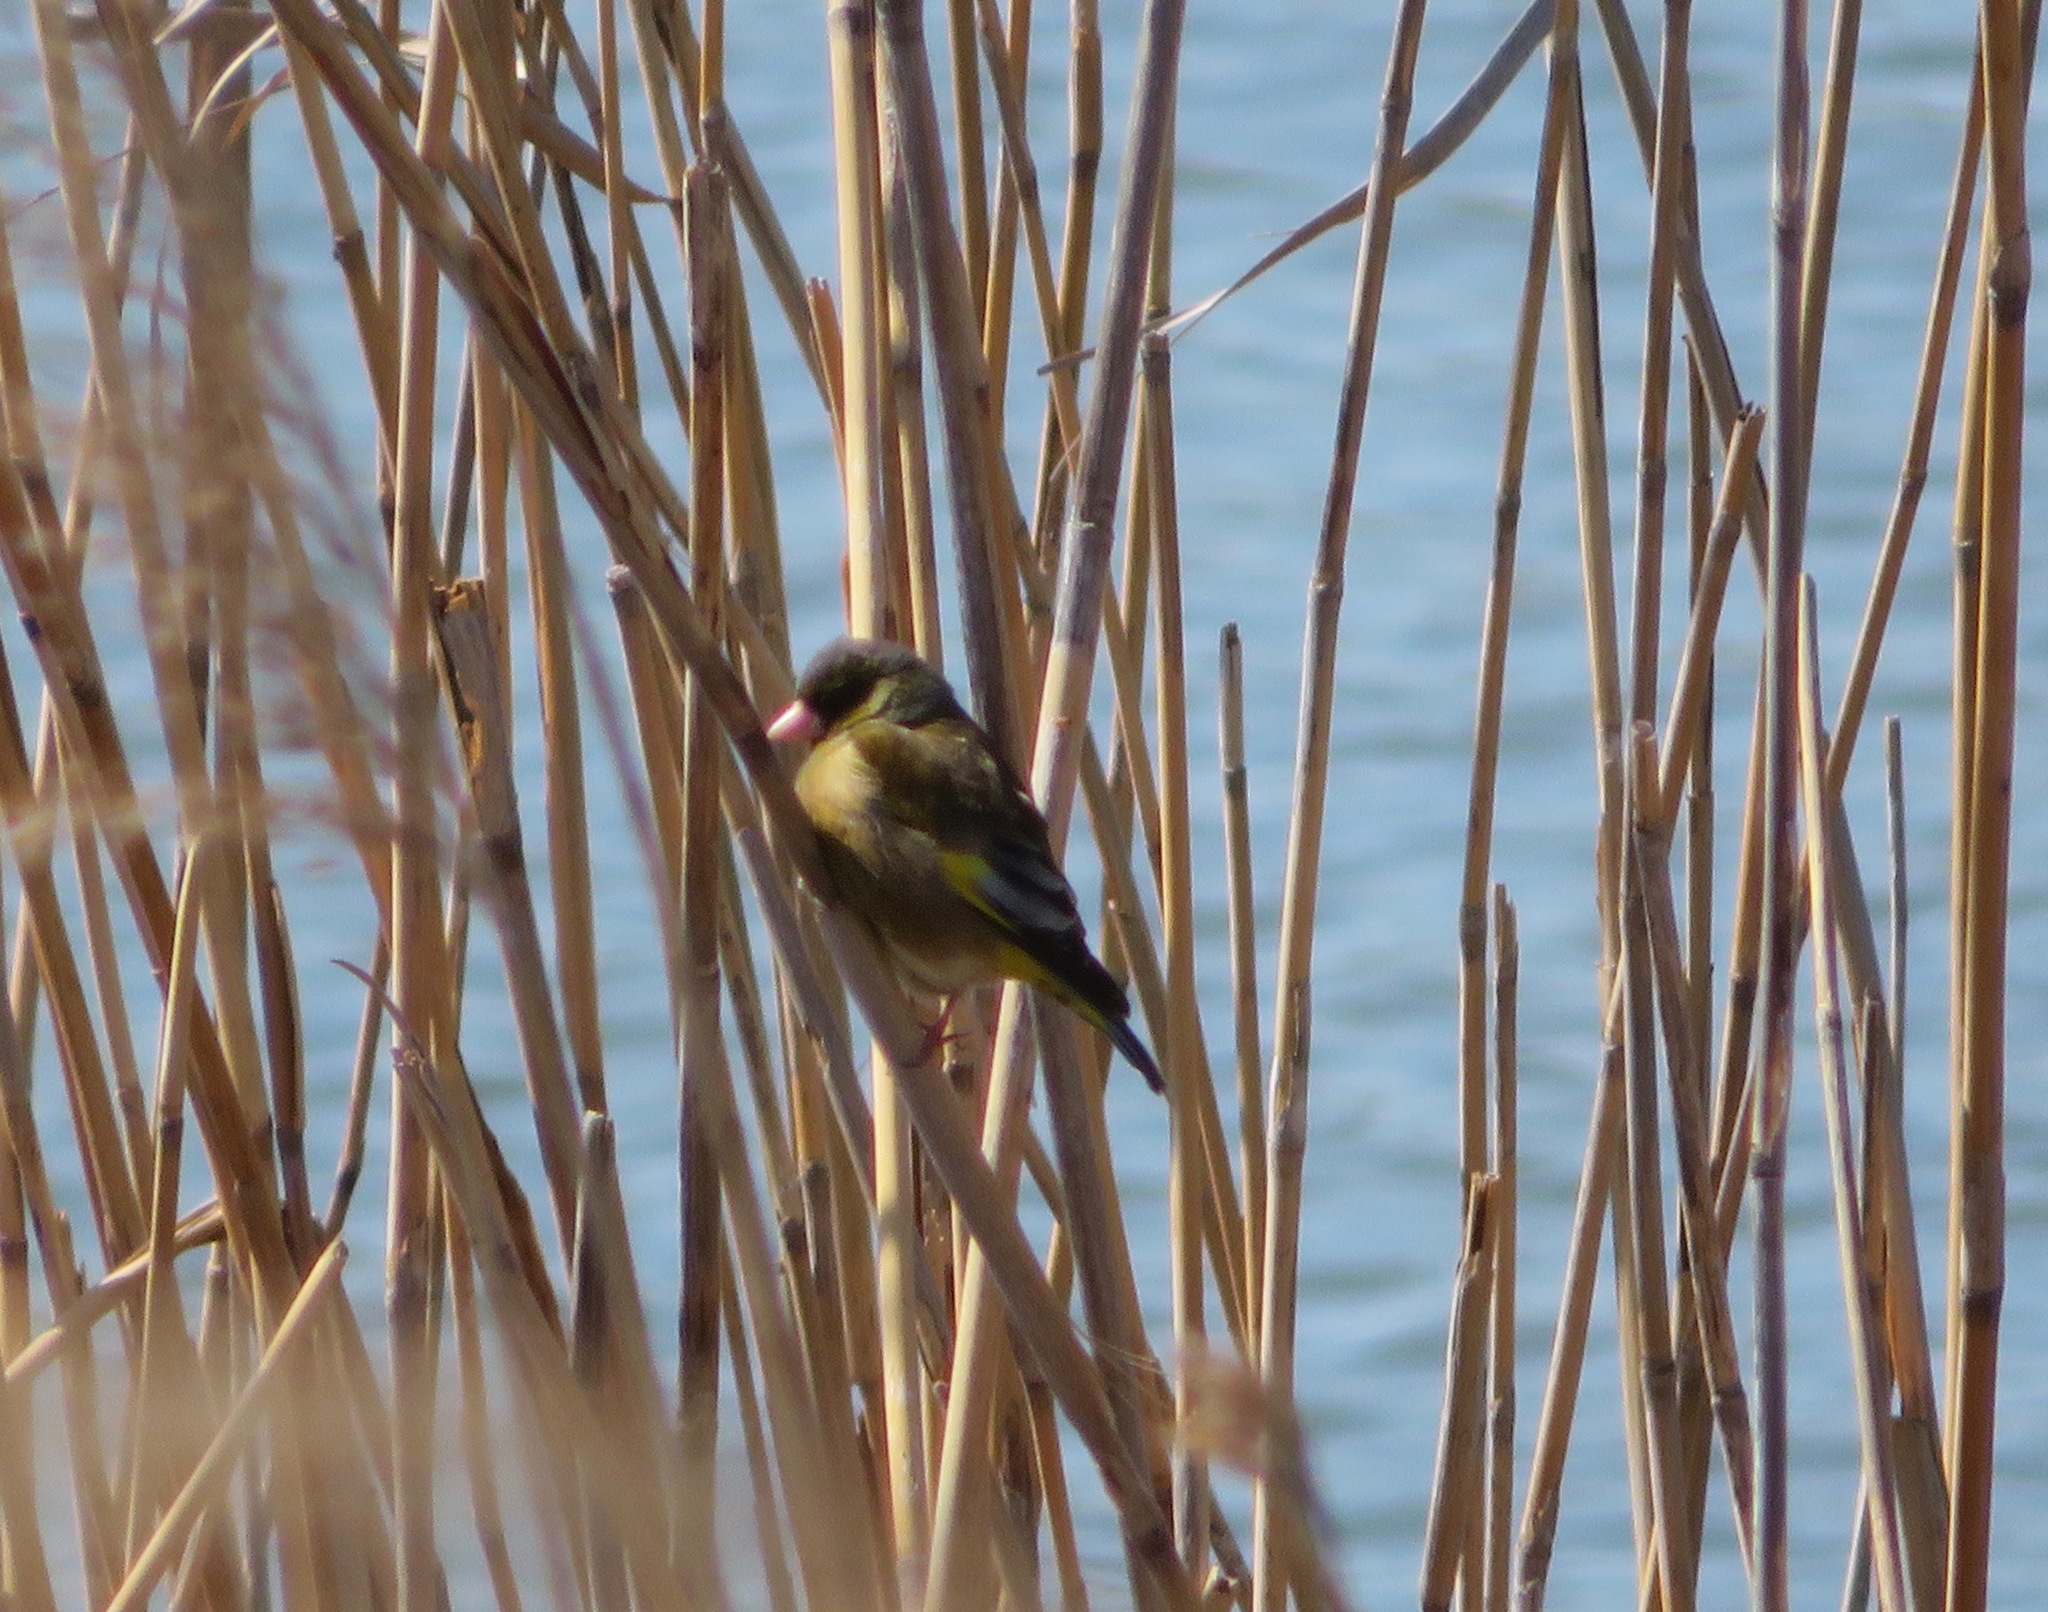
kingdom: Plantae
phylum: Tracheophyta
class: Liliopsida
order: Poales
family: Poaceae
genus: Chloris
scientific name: Chloris sinica
